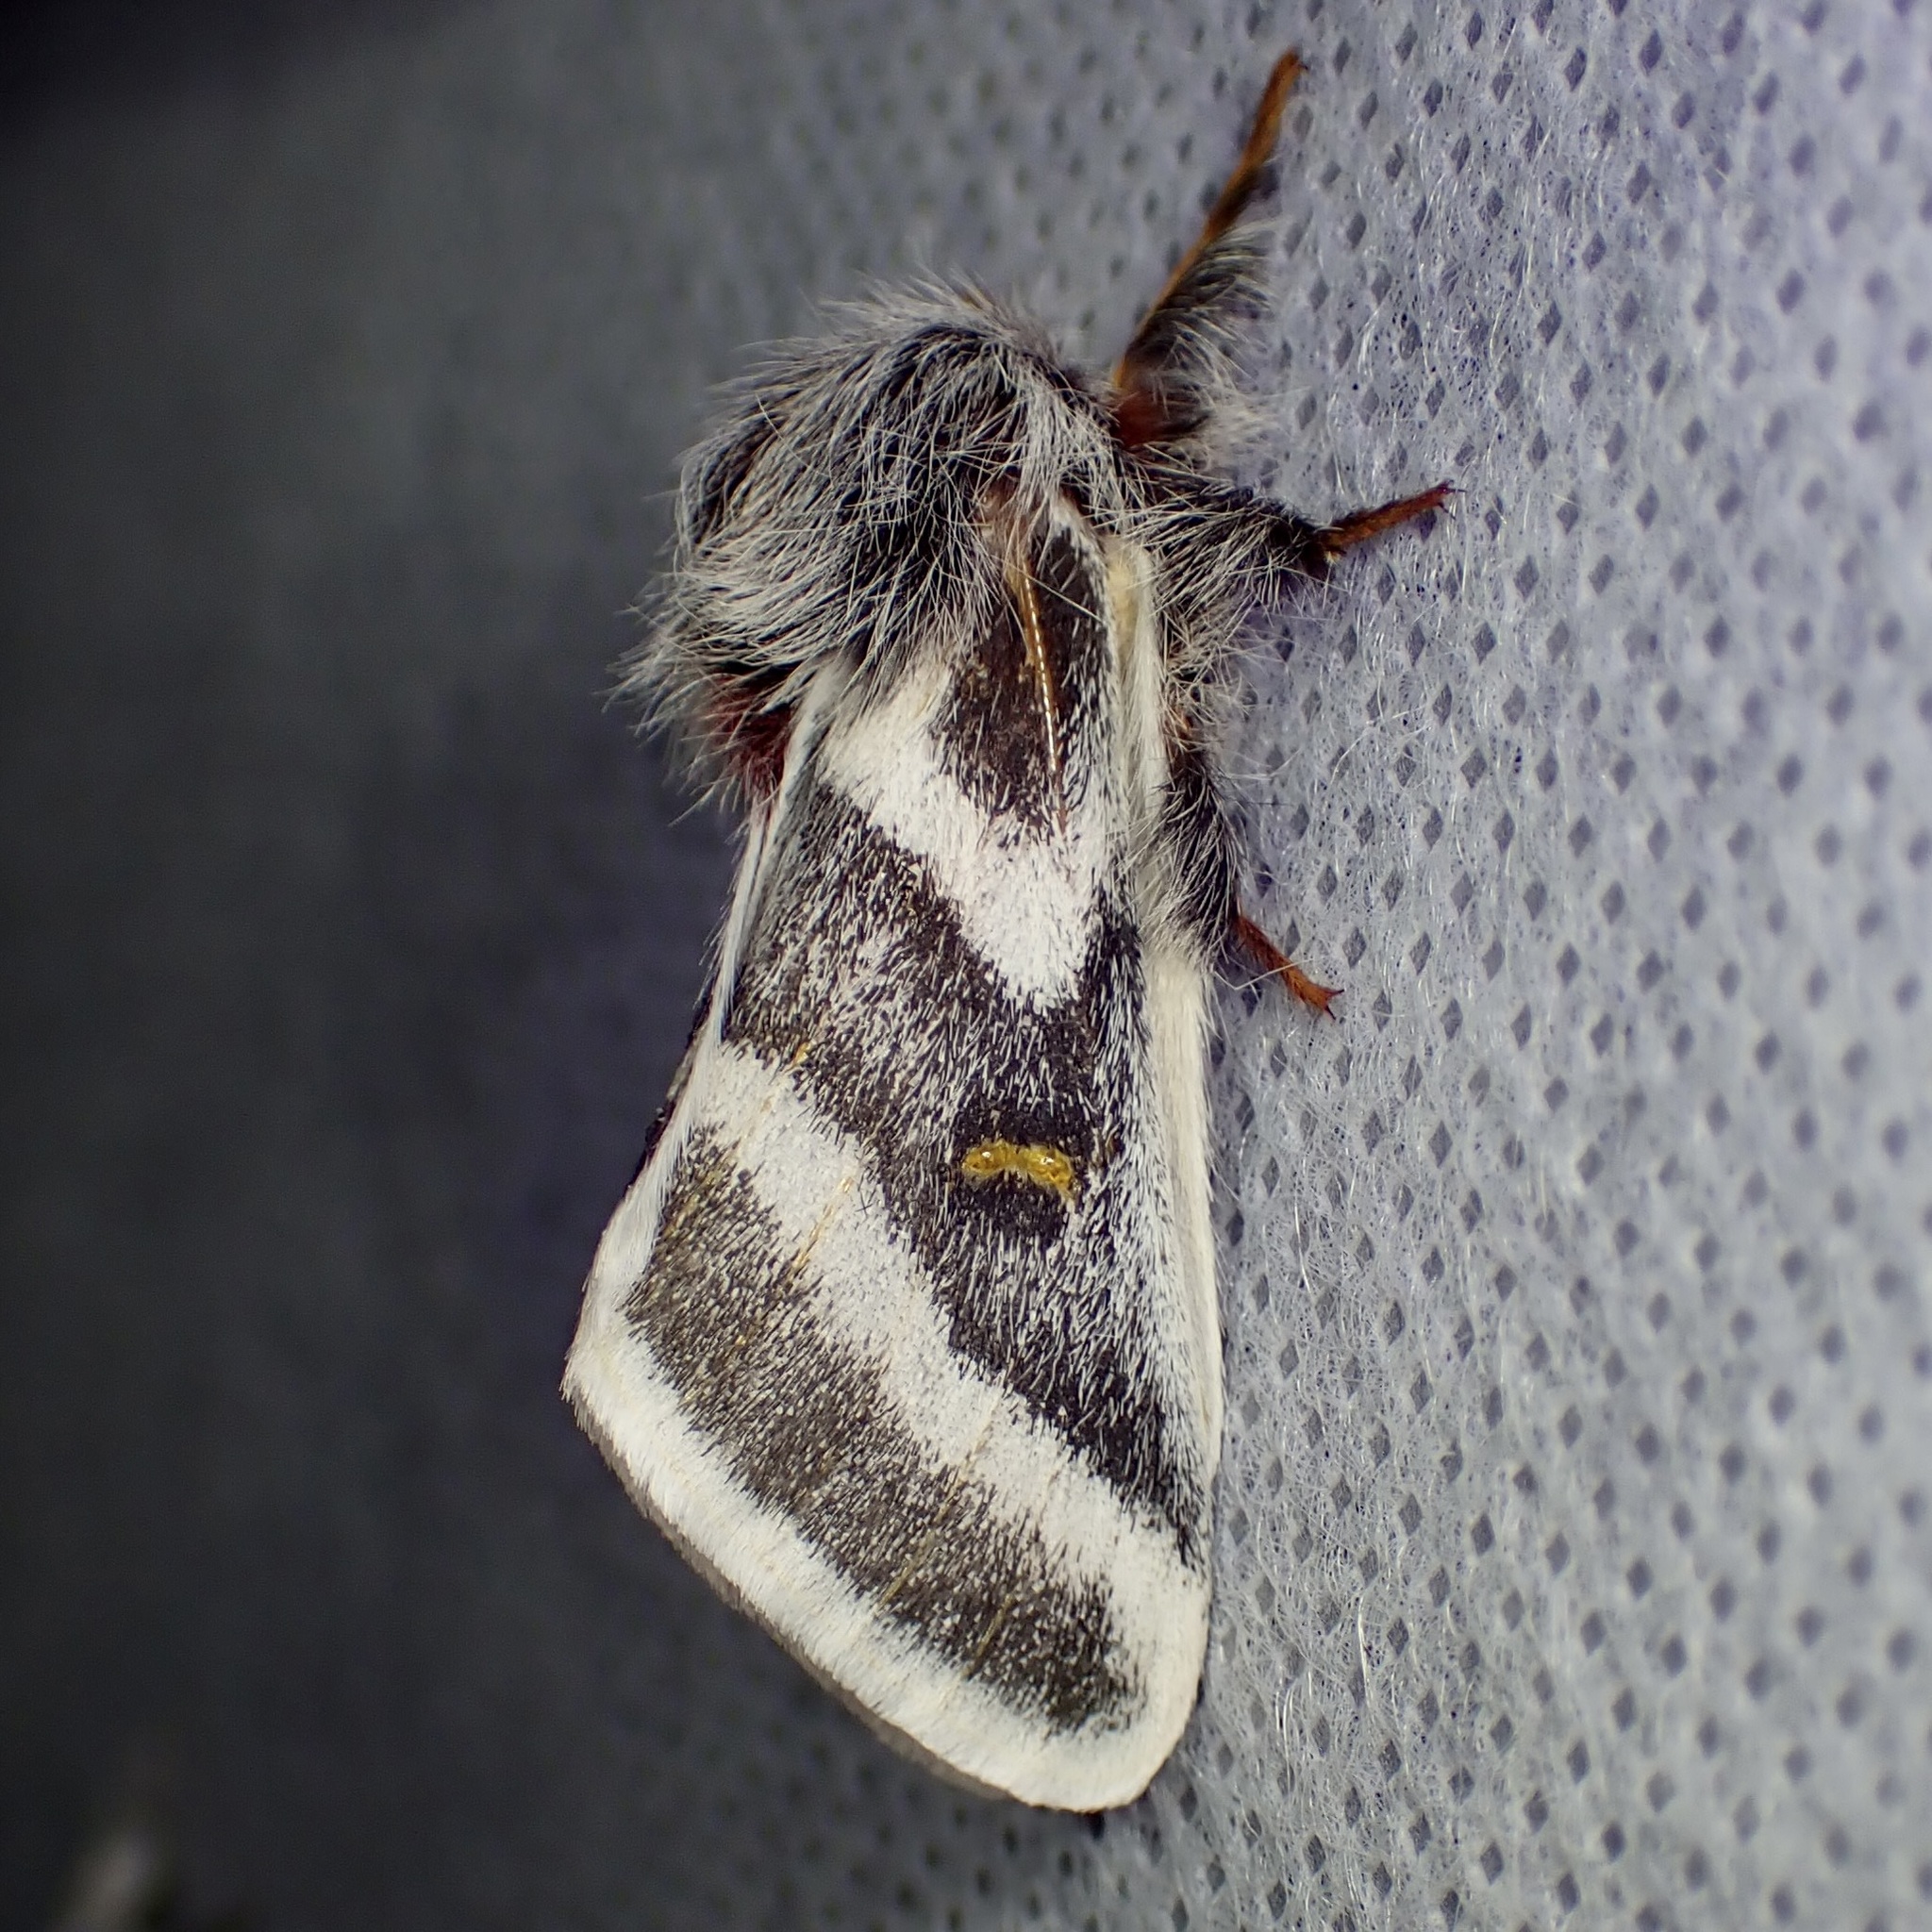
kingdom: Animalia
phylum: Arthropoda
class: Insecta
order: Lepidoptera
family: Saturniidae
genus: Hemileuca
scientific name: Hemileuca tricolor
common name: Tricolor buckmoth
